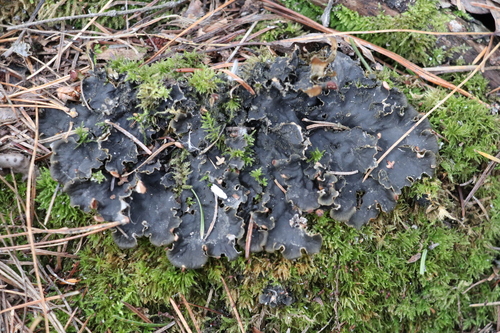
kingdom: Fungi
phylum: Ascomycota
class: Lecanoromycetes
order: Peltigerales
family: Peltigeraceae
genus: Peltigera
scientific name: Peltigera praetextata
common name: Scaly dog-lichen
